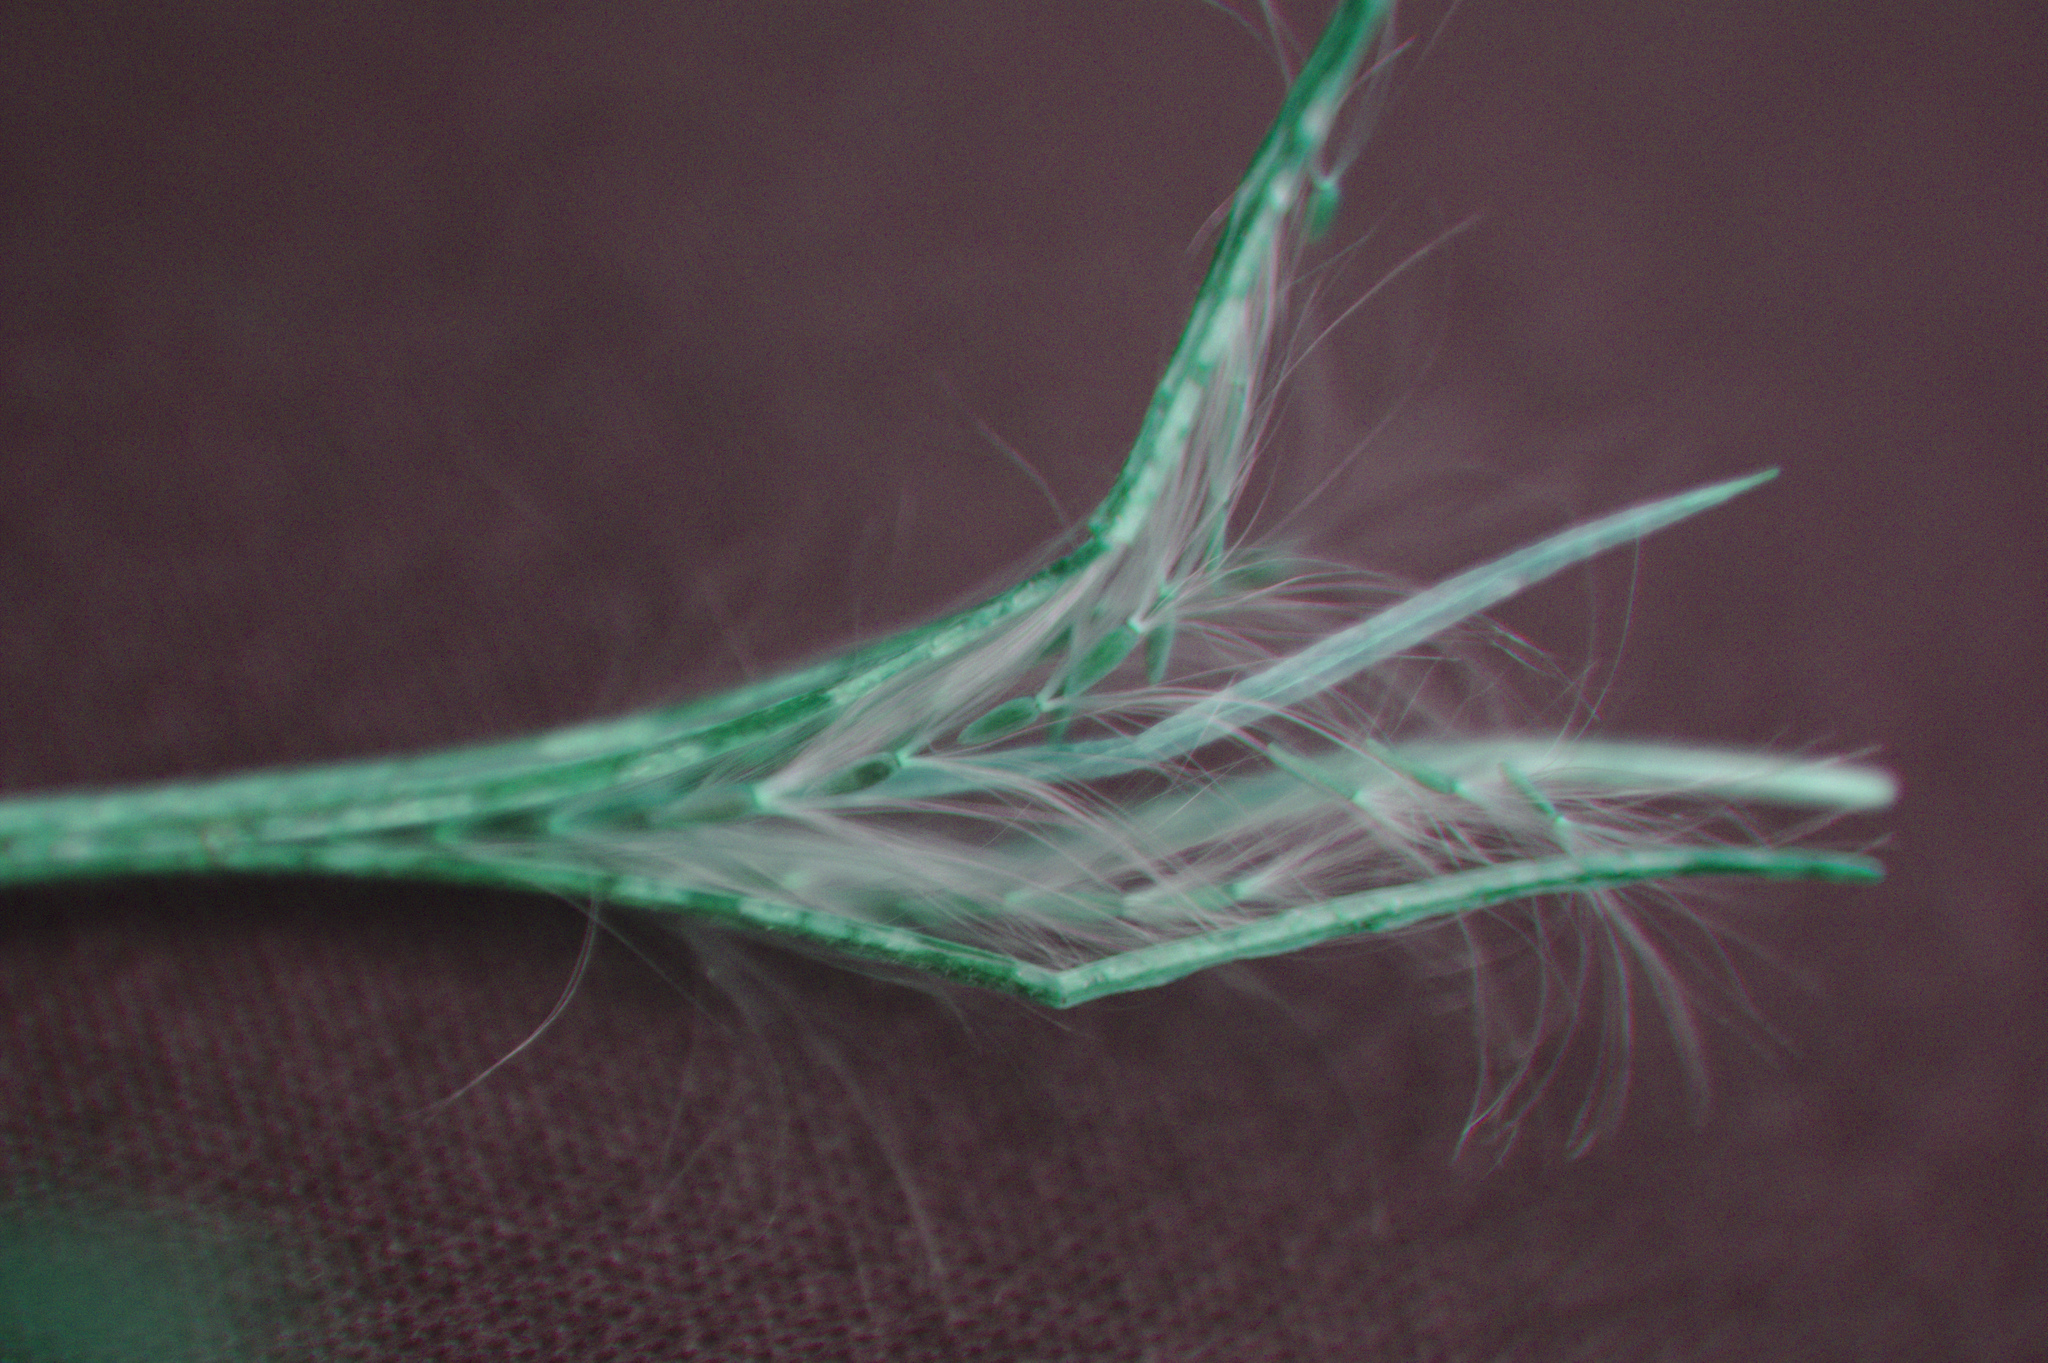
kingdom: Plantae
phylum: Tracheophyta
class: Magnoliopsida
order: Myrtales
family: Onagraceae
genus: Epilobium
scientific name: Epilobium ciliatum
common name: American willowherb
